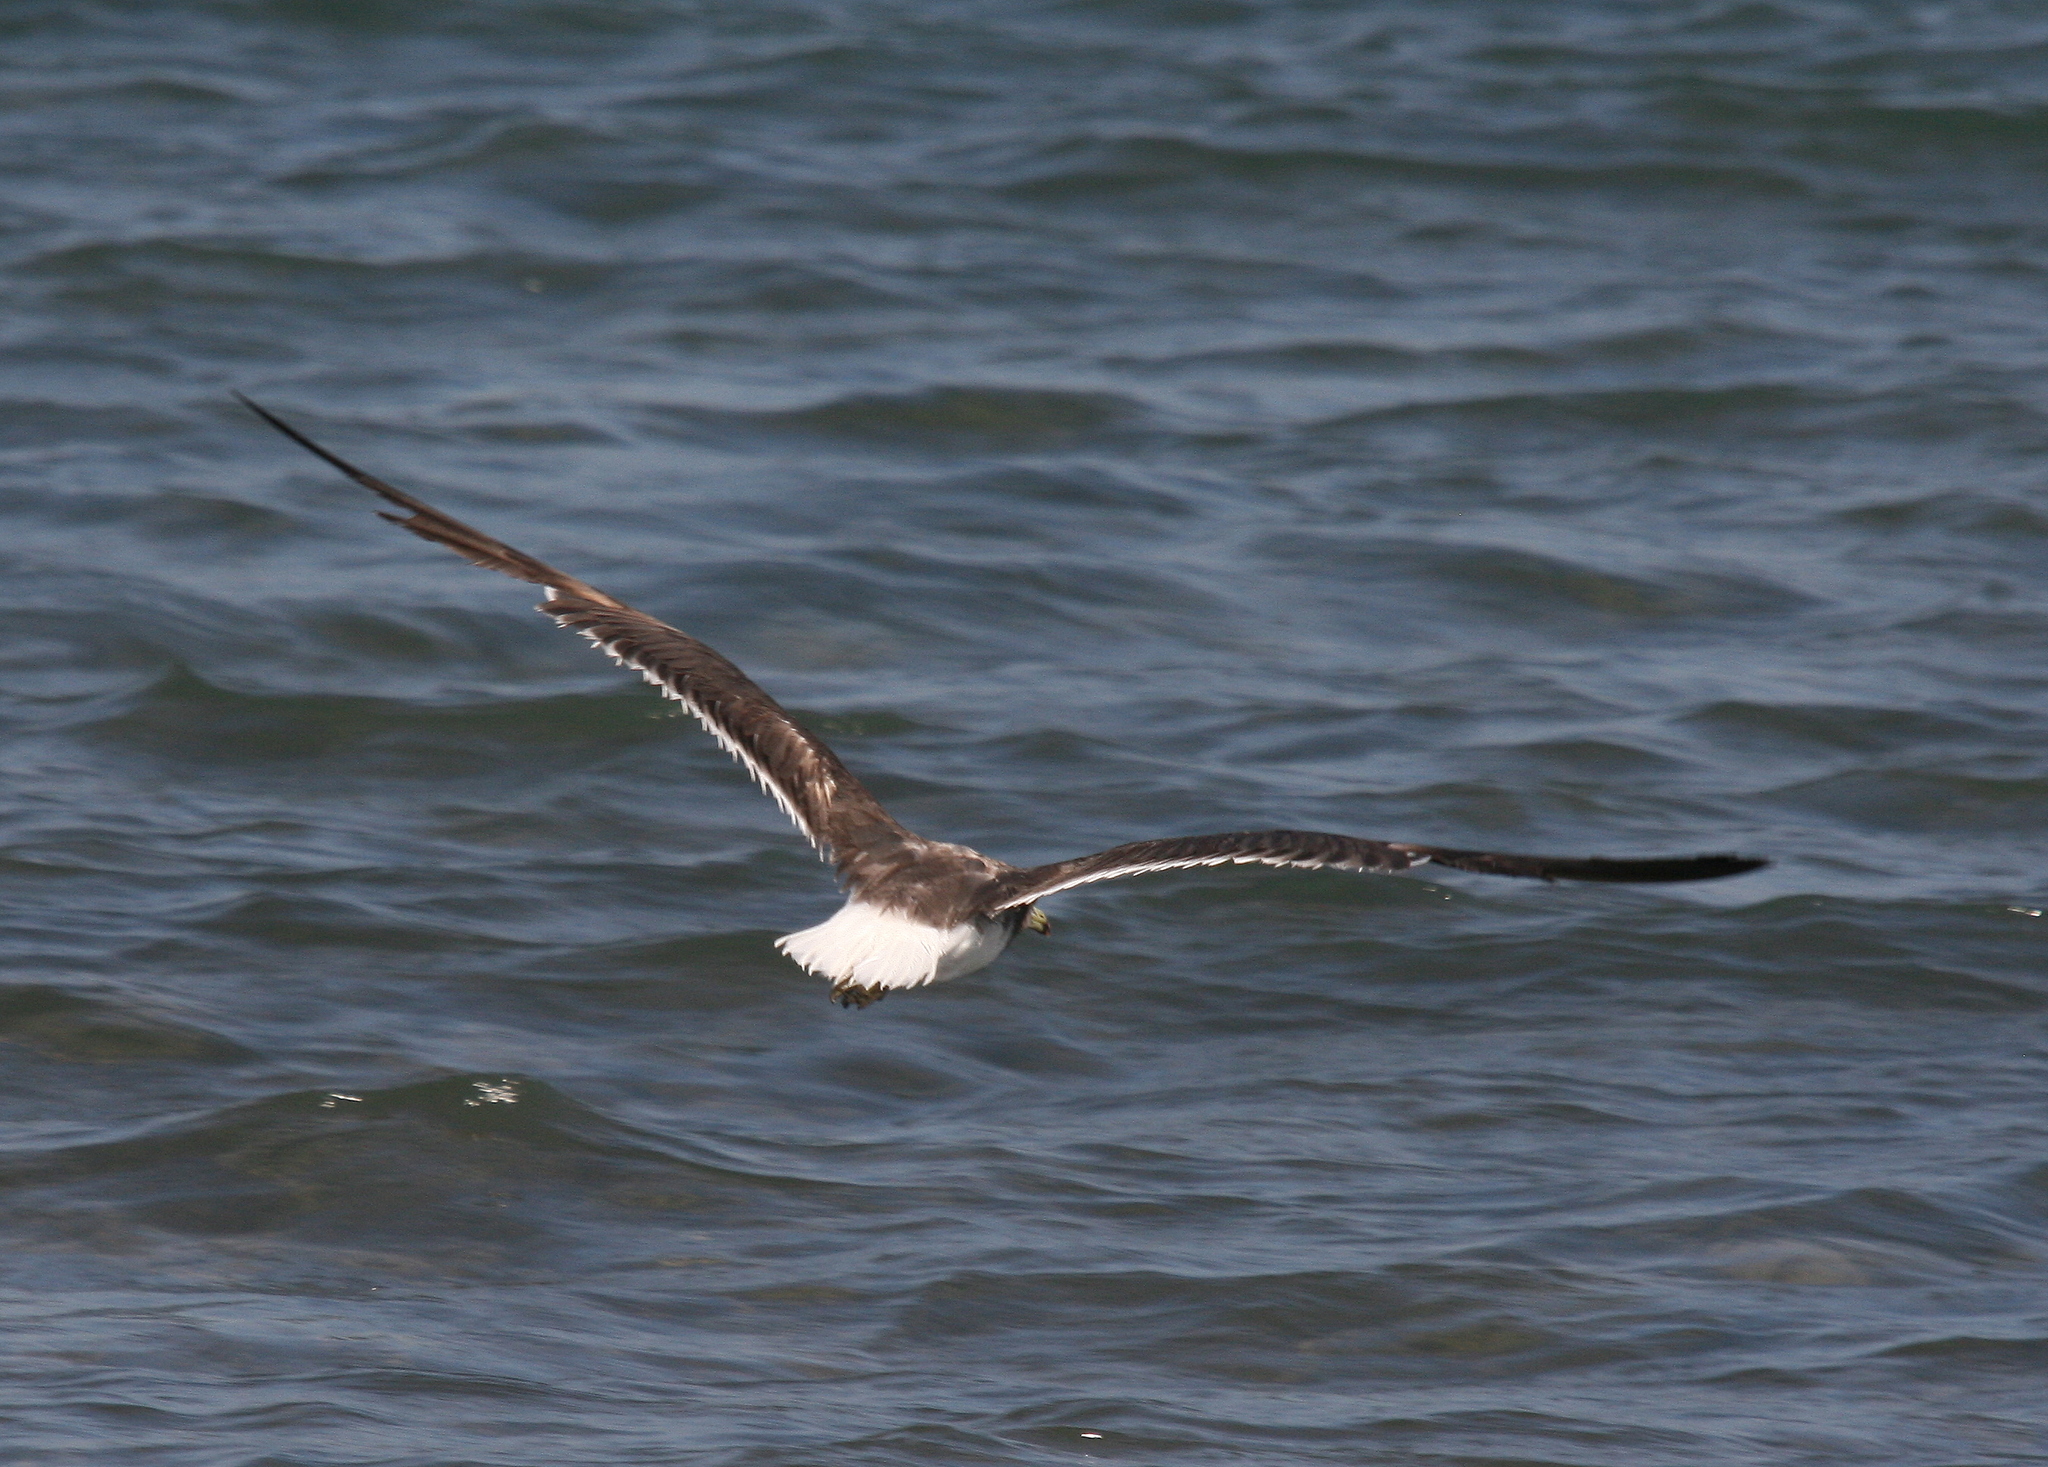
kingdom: Animalia
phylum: Chordata
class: Aves
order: Charadriiformes
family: Laridae
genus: Ichthyaetus
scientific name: Ichthyaetus hemprichii
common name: Sooty gull
